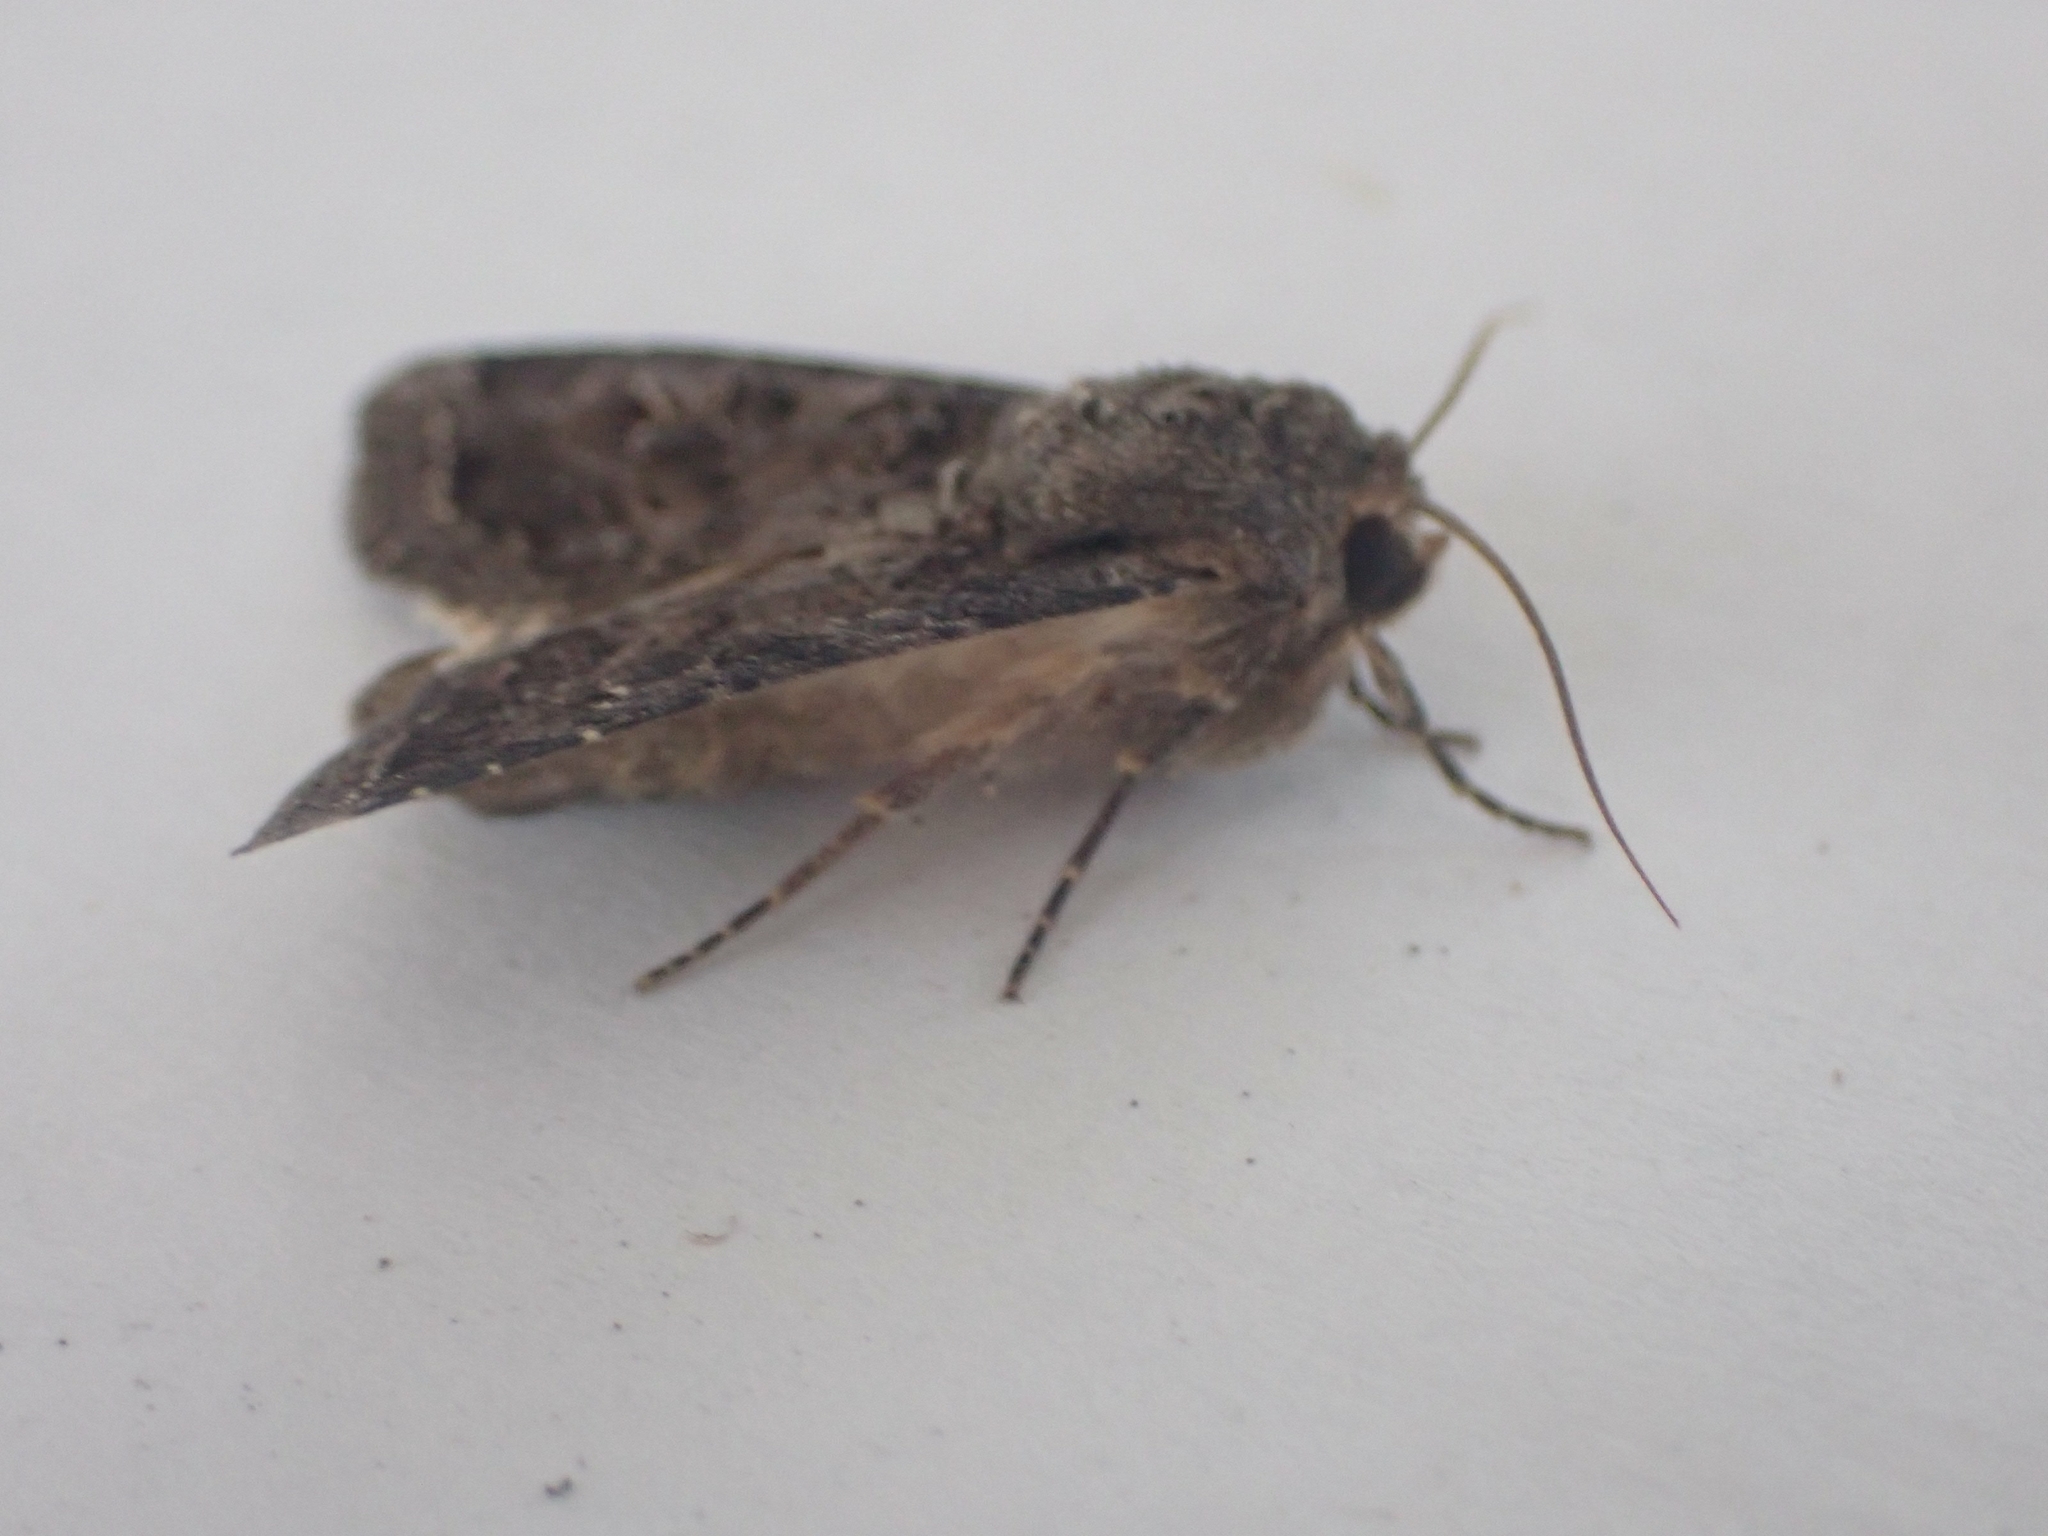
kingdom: Animalia
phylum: Arthropoda
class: Insecta
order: Lepidoptera
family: Noctuidae
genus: Apamea
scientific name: Apamea devastator
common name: Glassy cutworm
